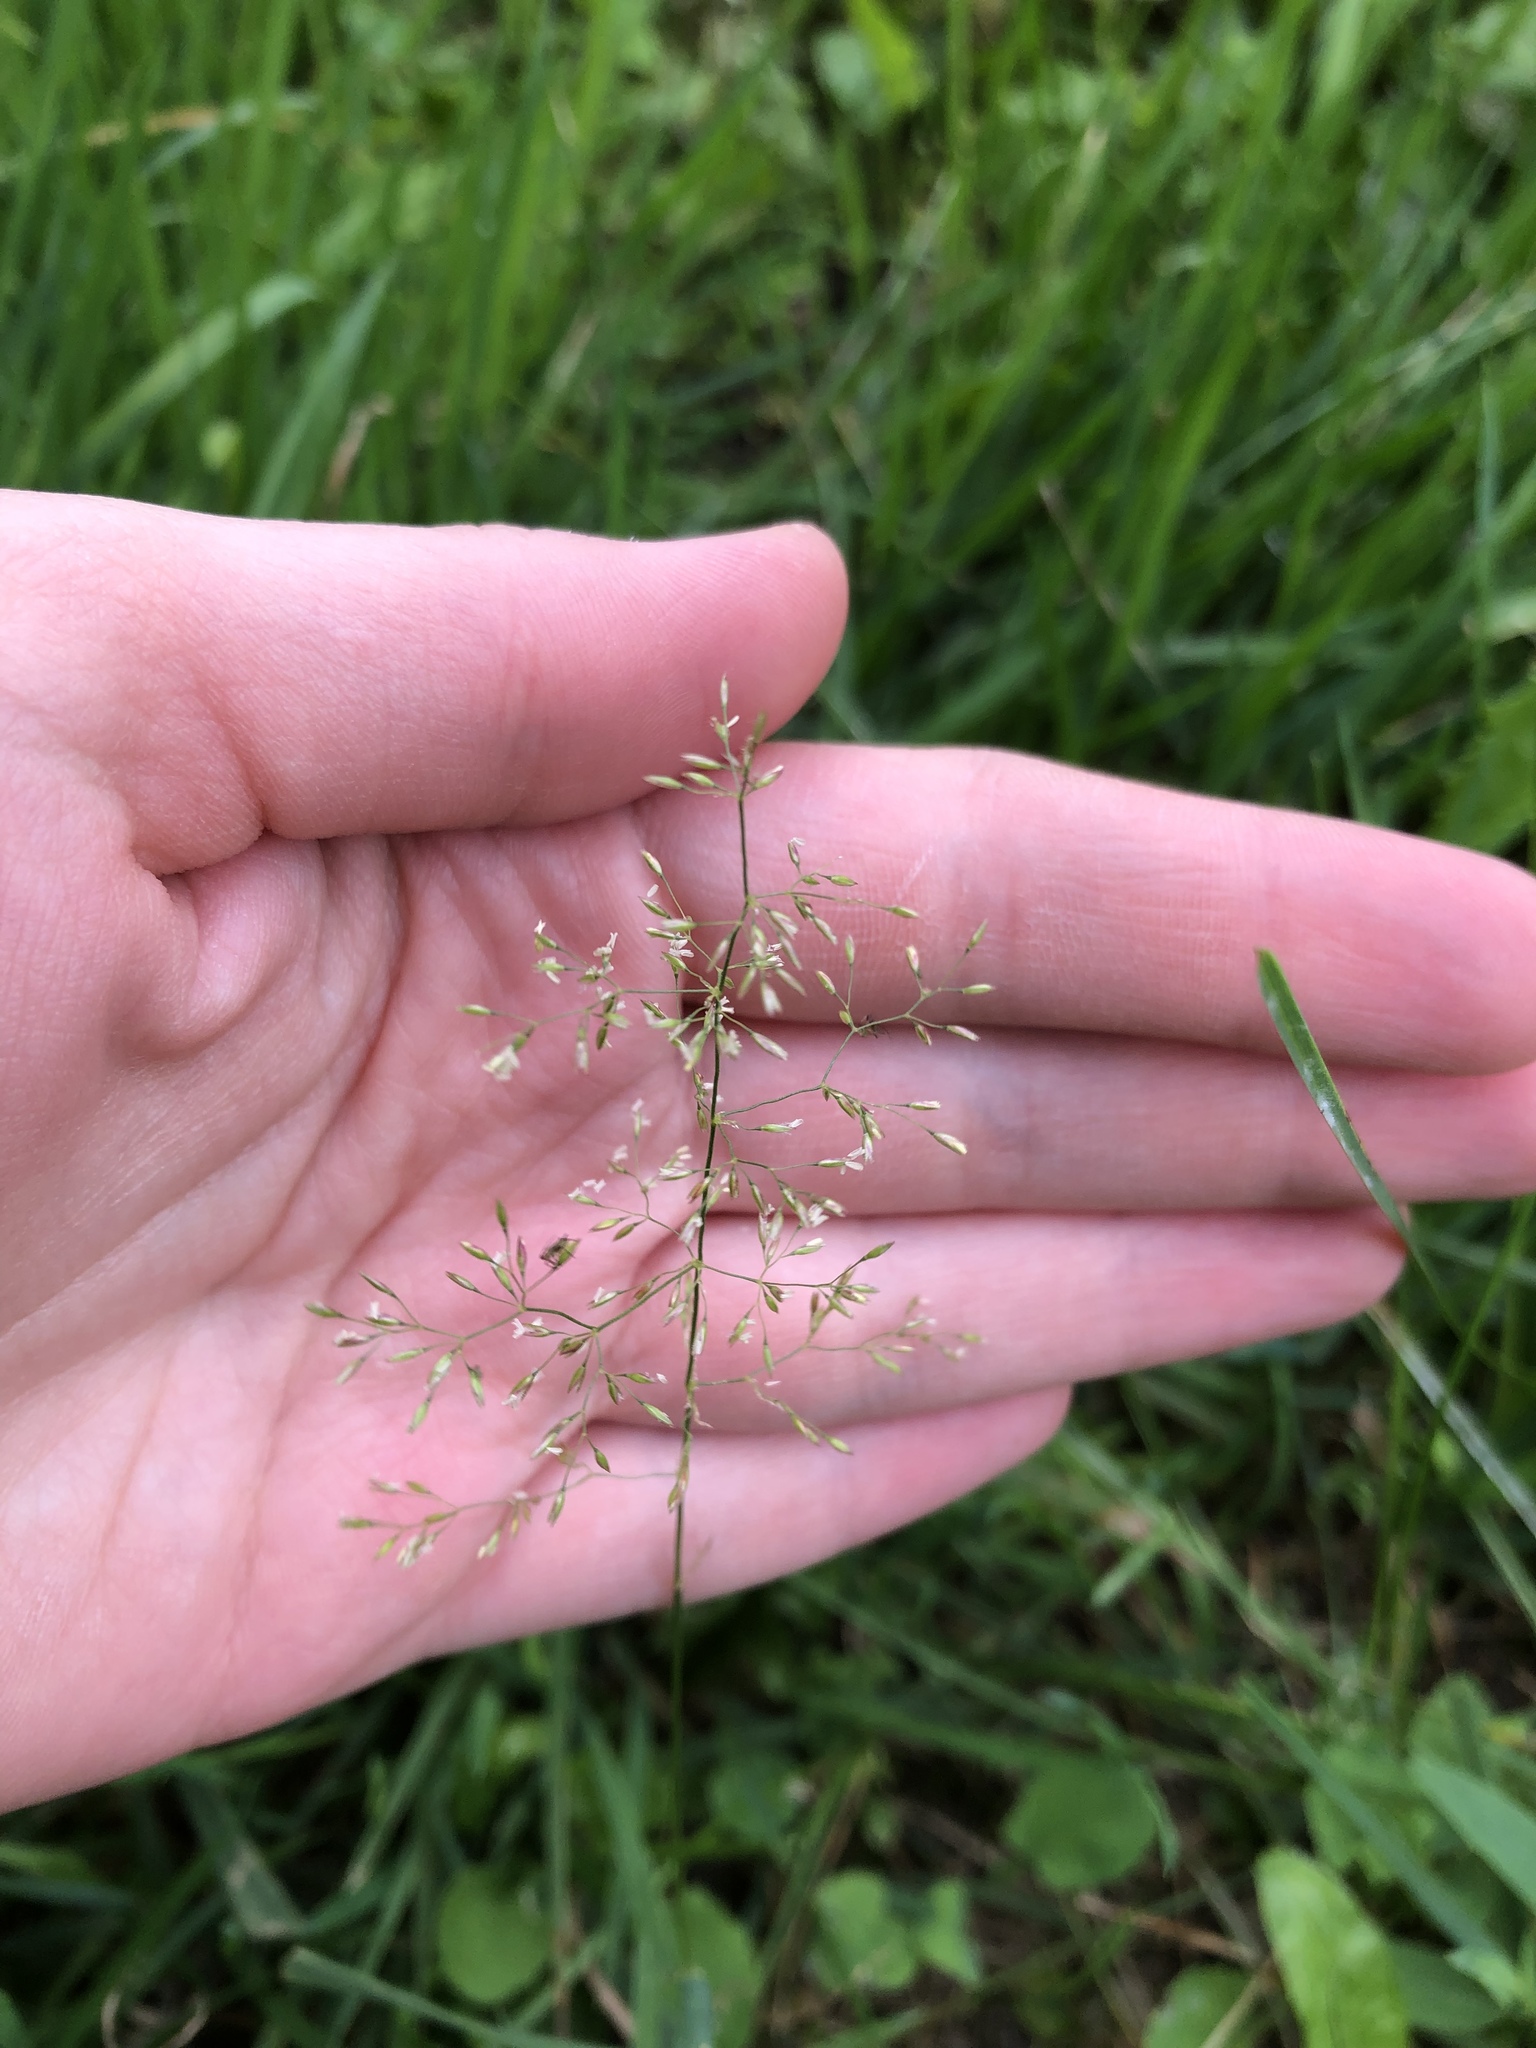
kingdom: Plantae
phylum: Tracheophyta
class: Liliopsida
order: Poales
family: Poaceae
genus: Agrostis
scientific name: Agrostis capillaris
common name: Colonial bentgrass
